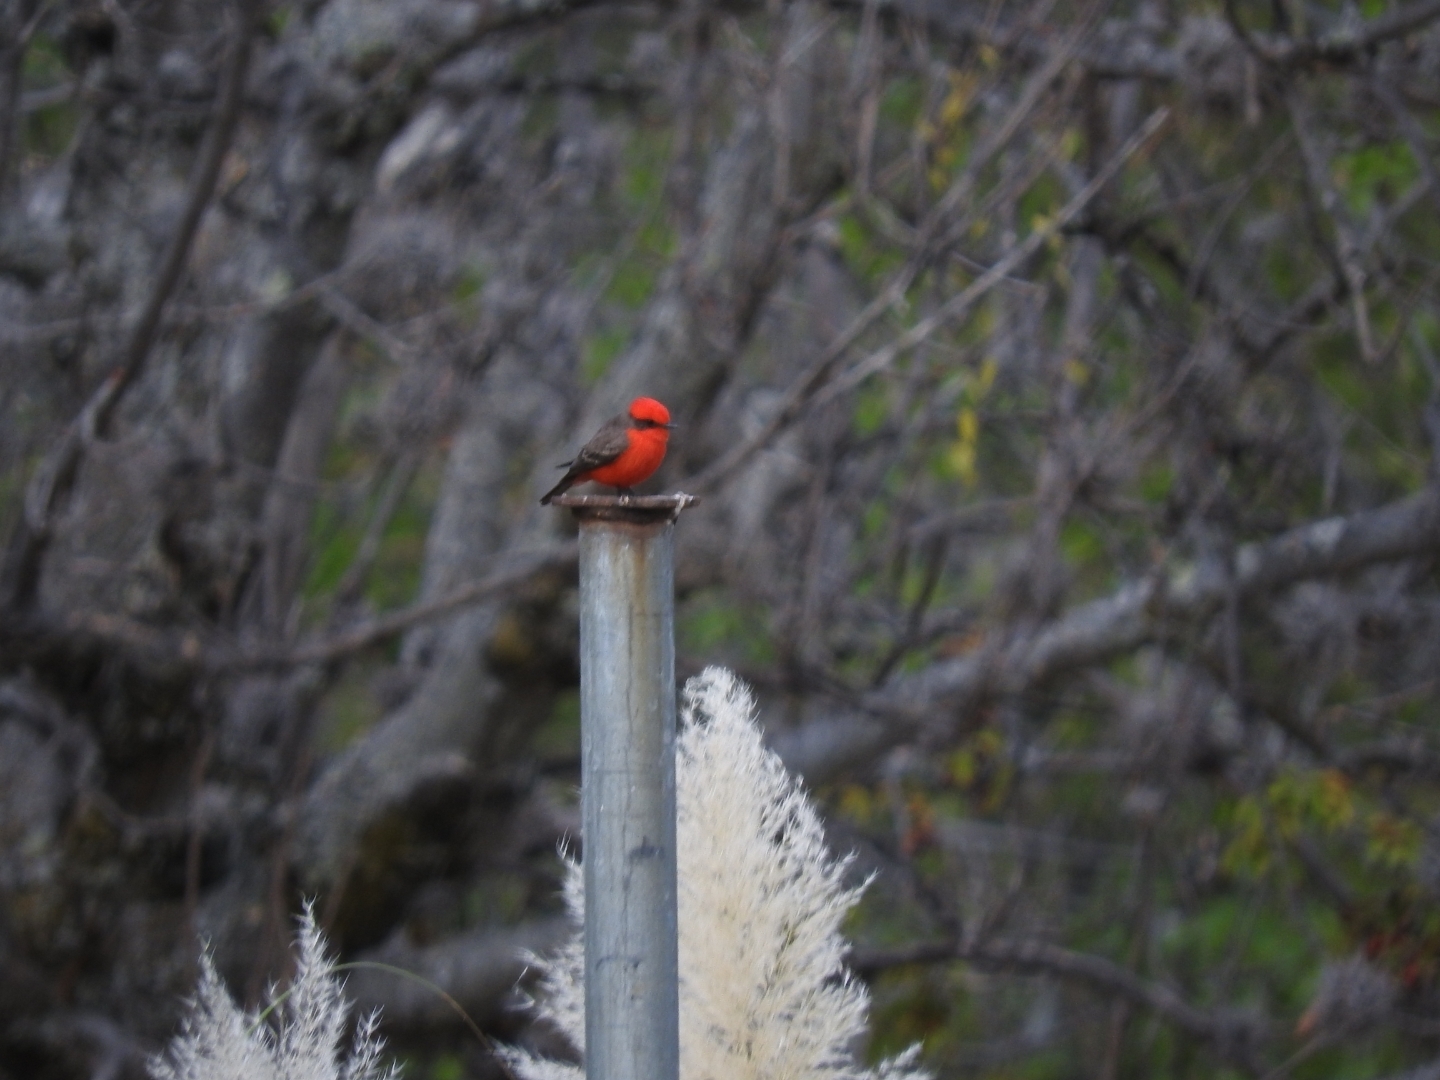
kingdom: Animalia
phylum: Chordata
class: Aves
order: Passeriformes
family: Tyrannidae
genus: Pyrocephalus
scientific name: Pyrocephalus rubinus
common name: Vermilion flycatcher
